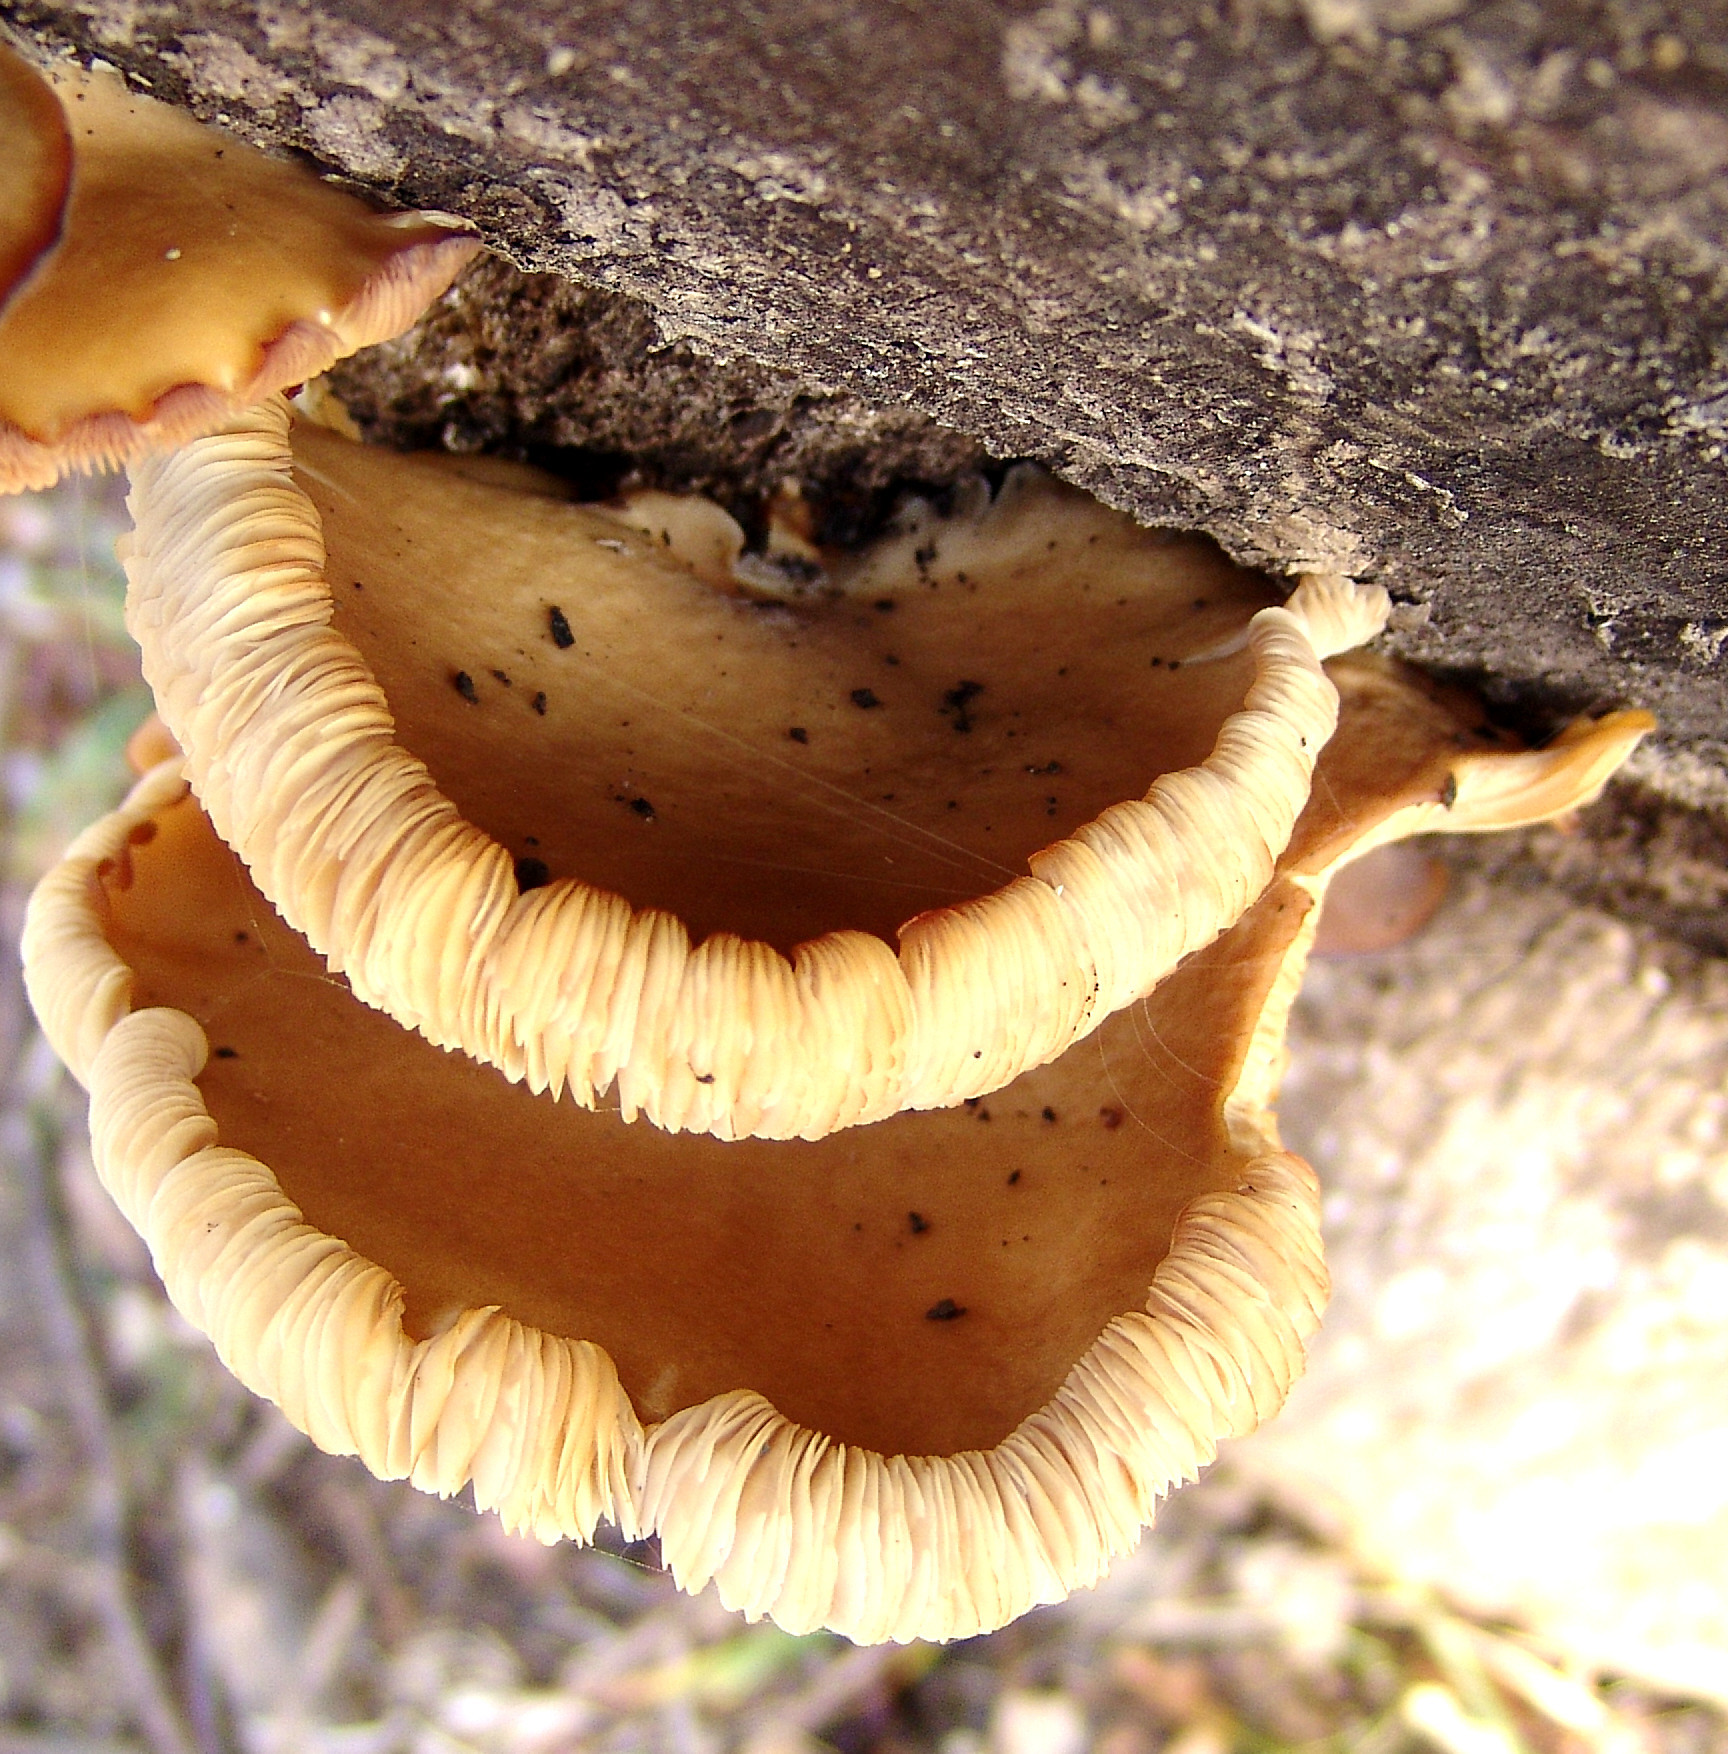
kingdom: Fungi
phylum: Basidiomycota
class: Agaricomycetes
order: Agaricales
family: Pleurotaceae
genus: Pleurotus
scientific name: Pleurotus ostreatus
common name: Oyster mushroom
